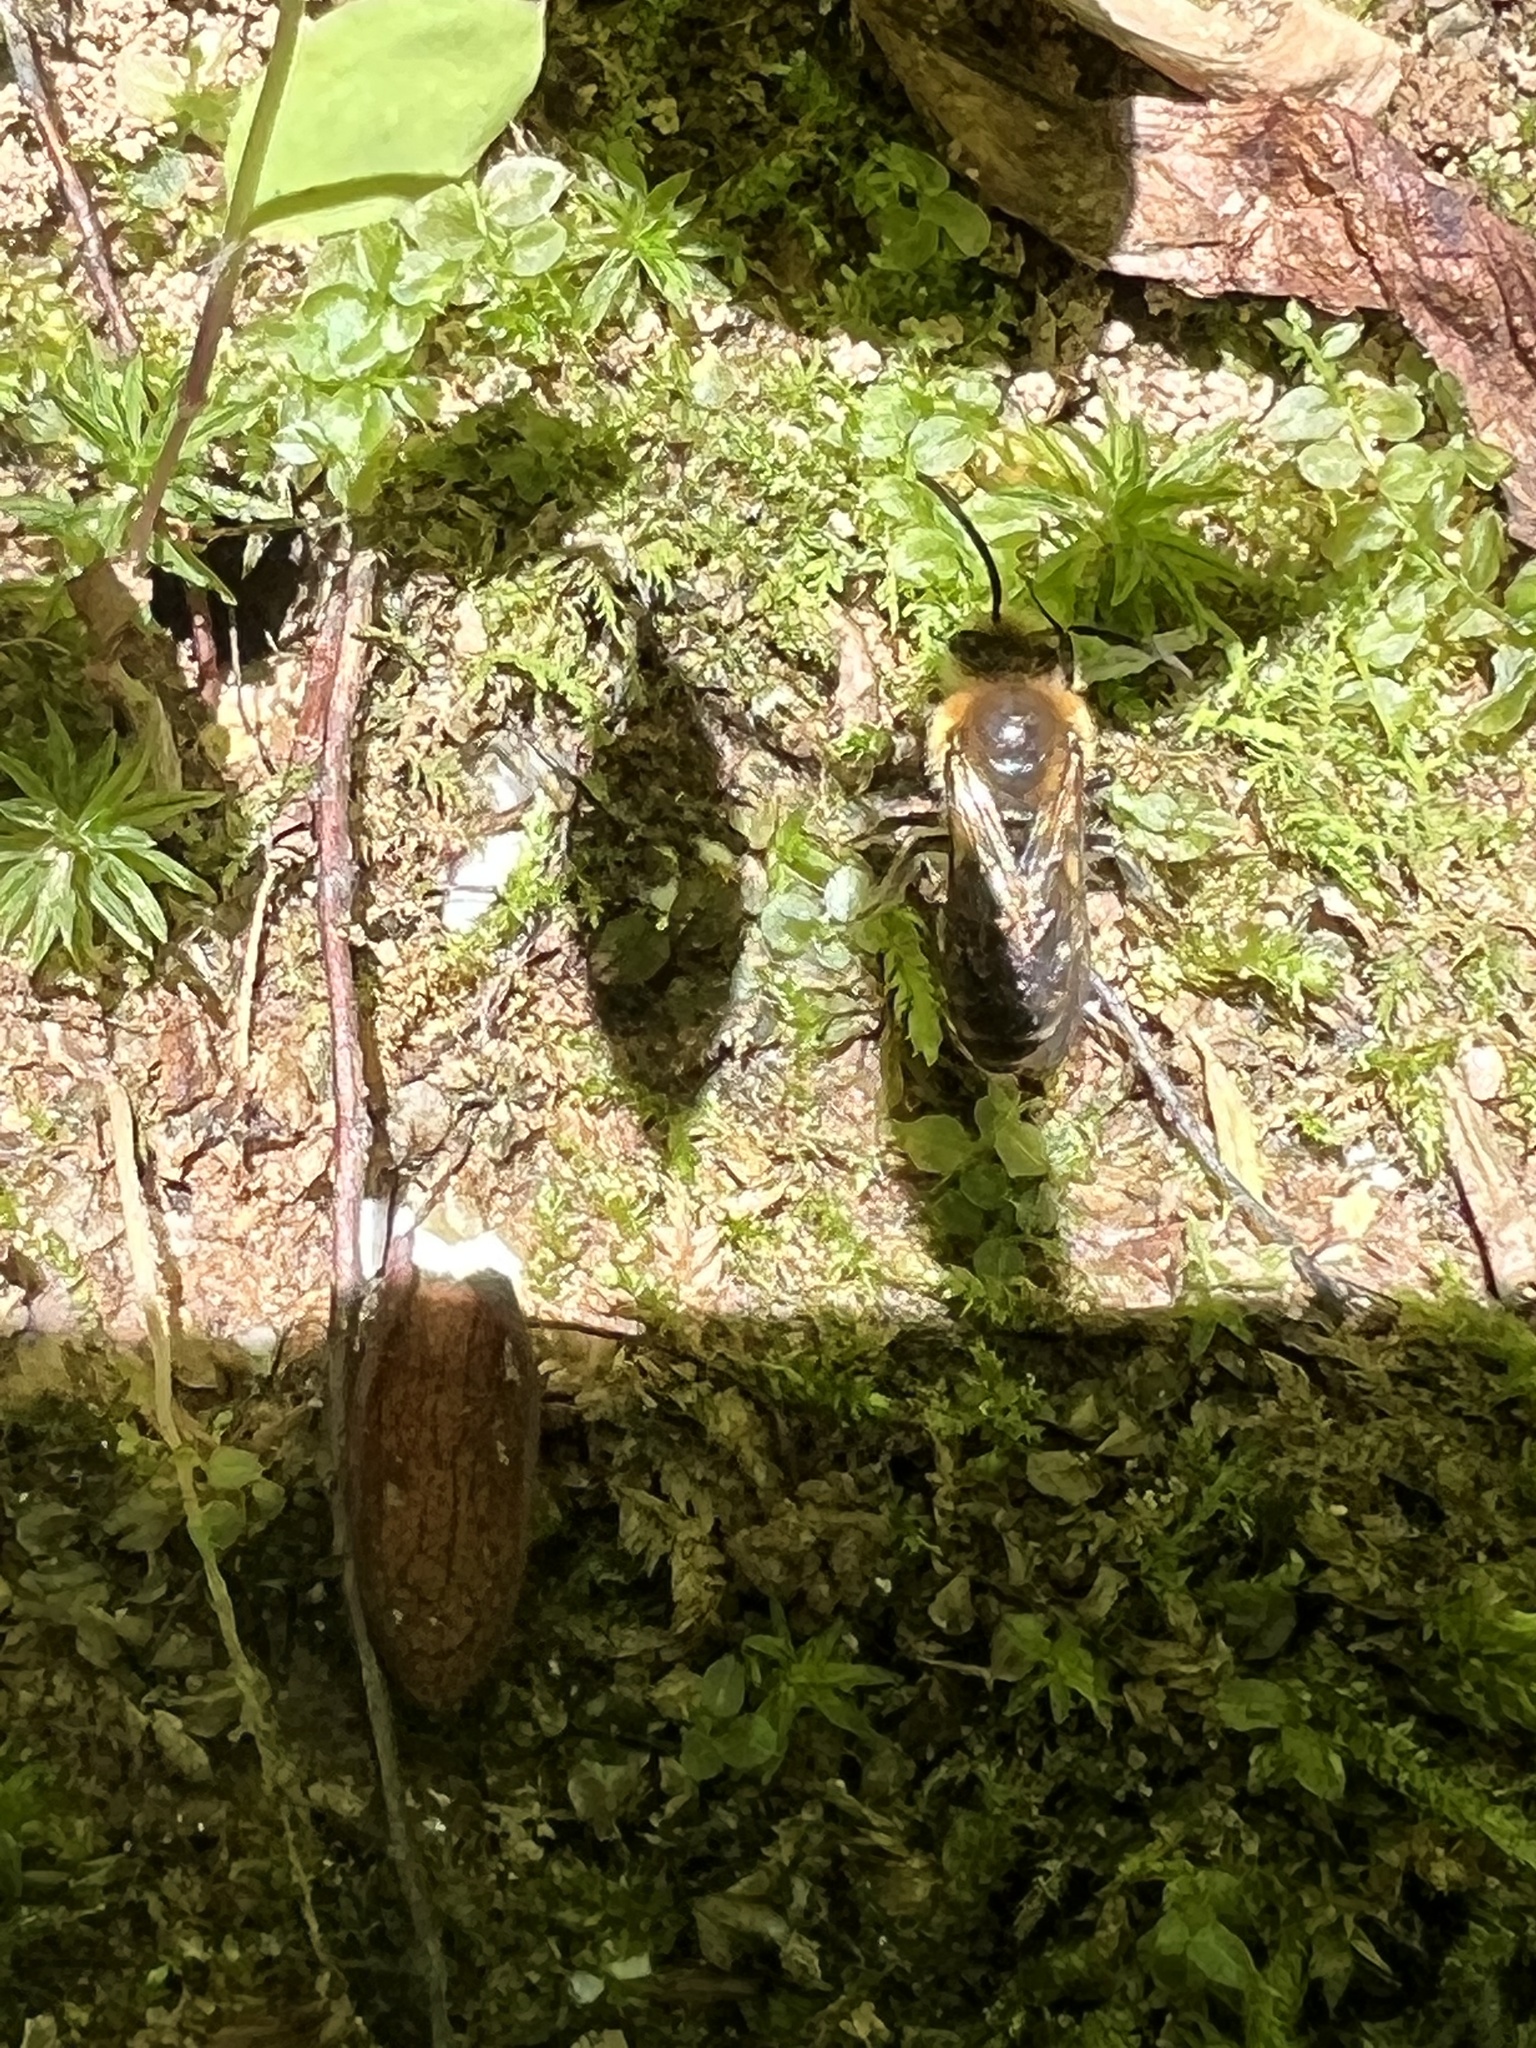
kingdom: Animalia
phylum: Arthropoda
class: Insecta
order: Hymenoptera
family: Colletidae
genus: Colletes
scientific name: Colletes thoracicus
